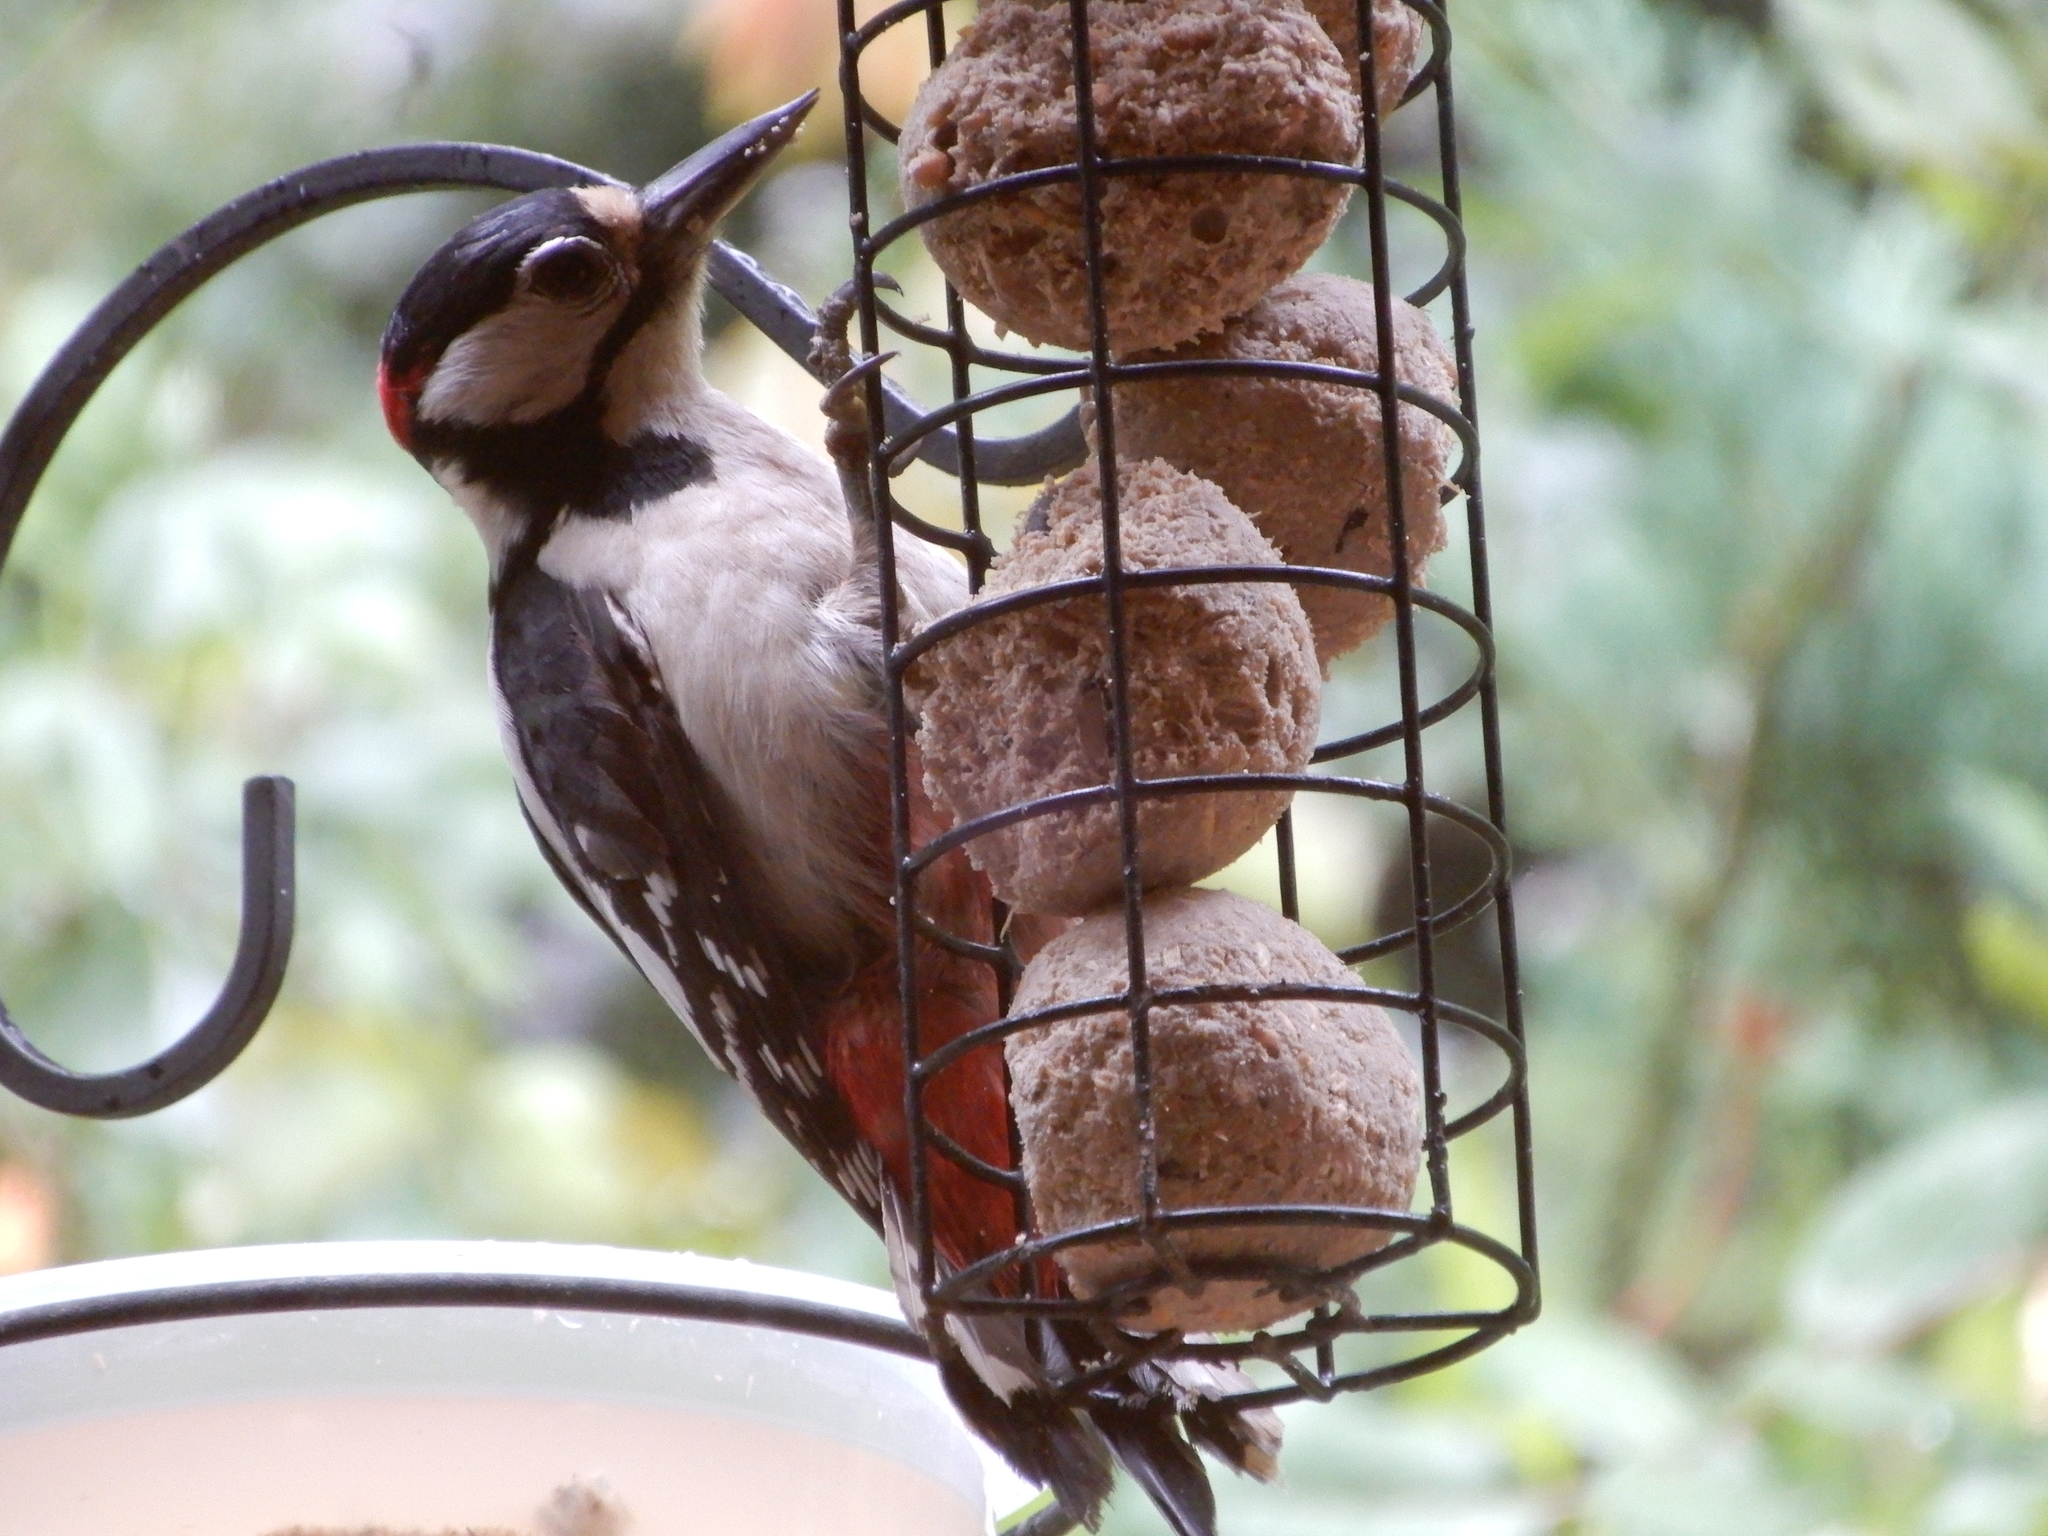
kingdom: Animalia
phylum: Chordata
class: Aves
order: Piciformes
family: Picidae
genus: Dendrocopos
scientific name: Dendrocopos major
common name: Great spotted woodpecker
